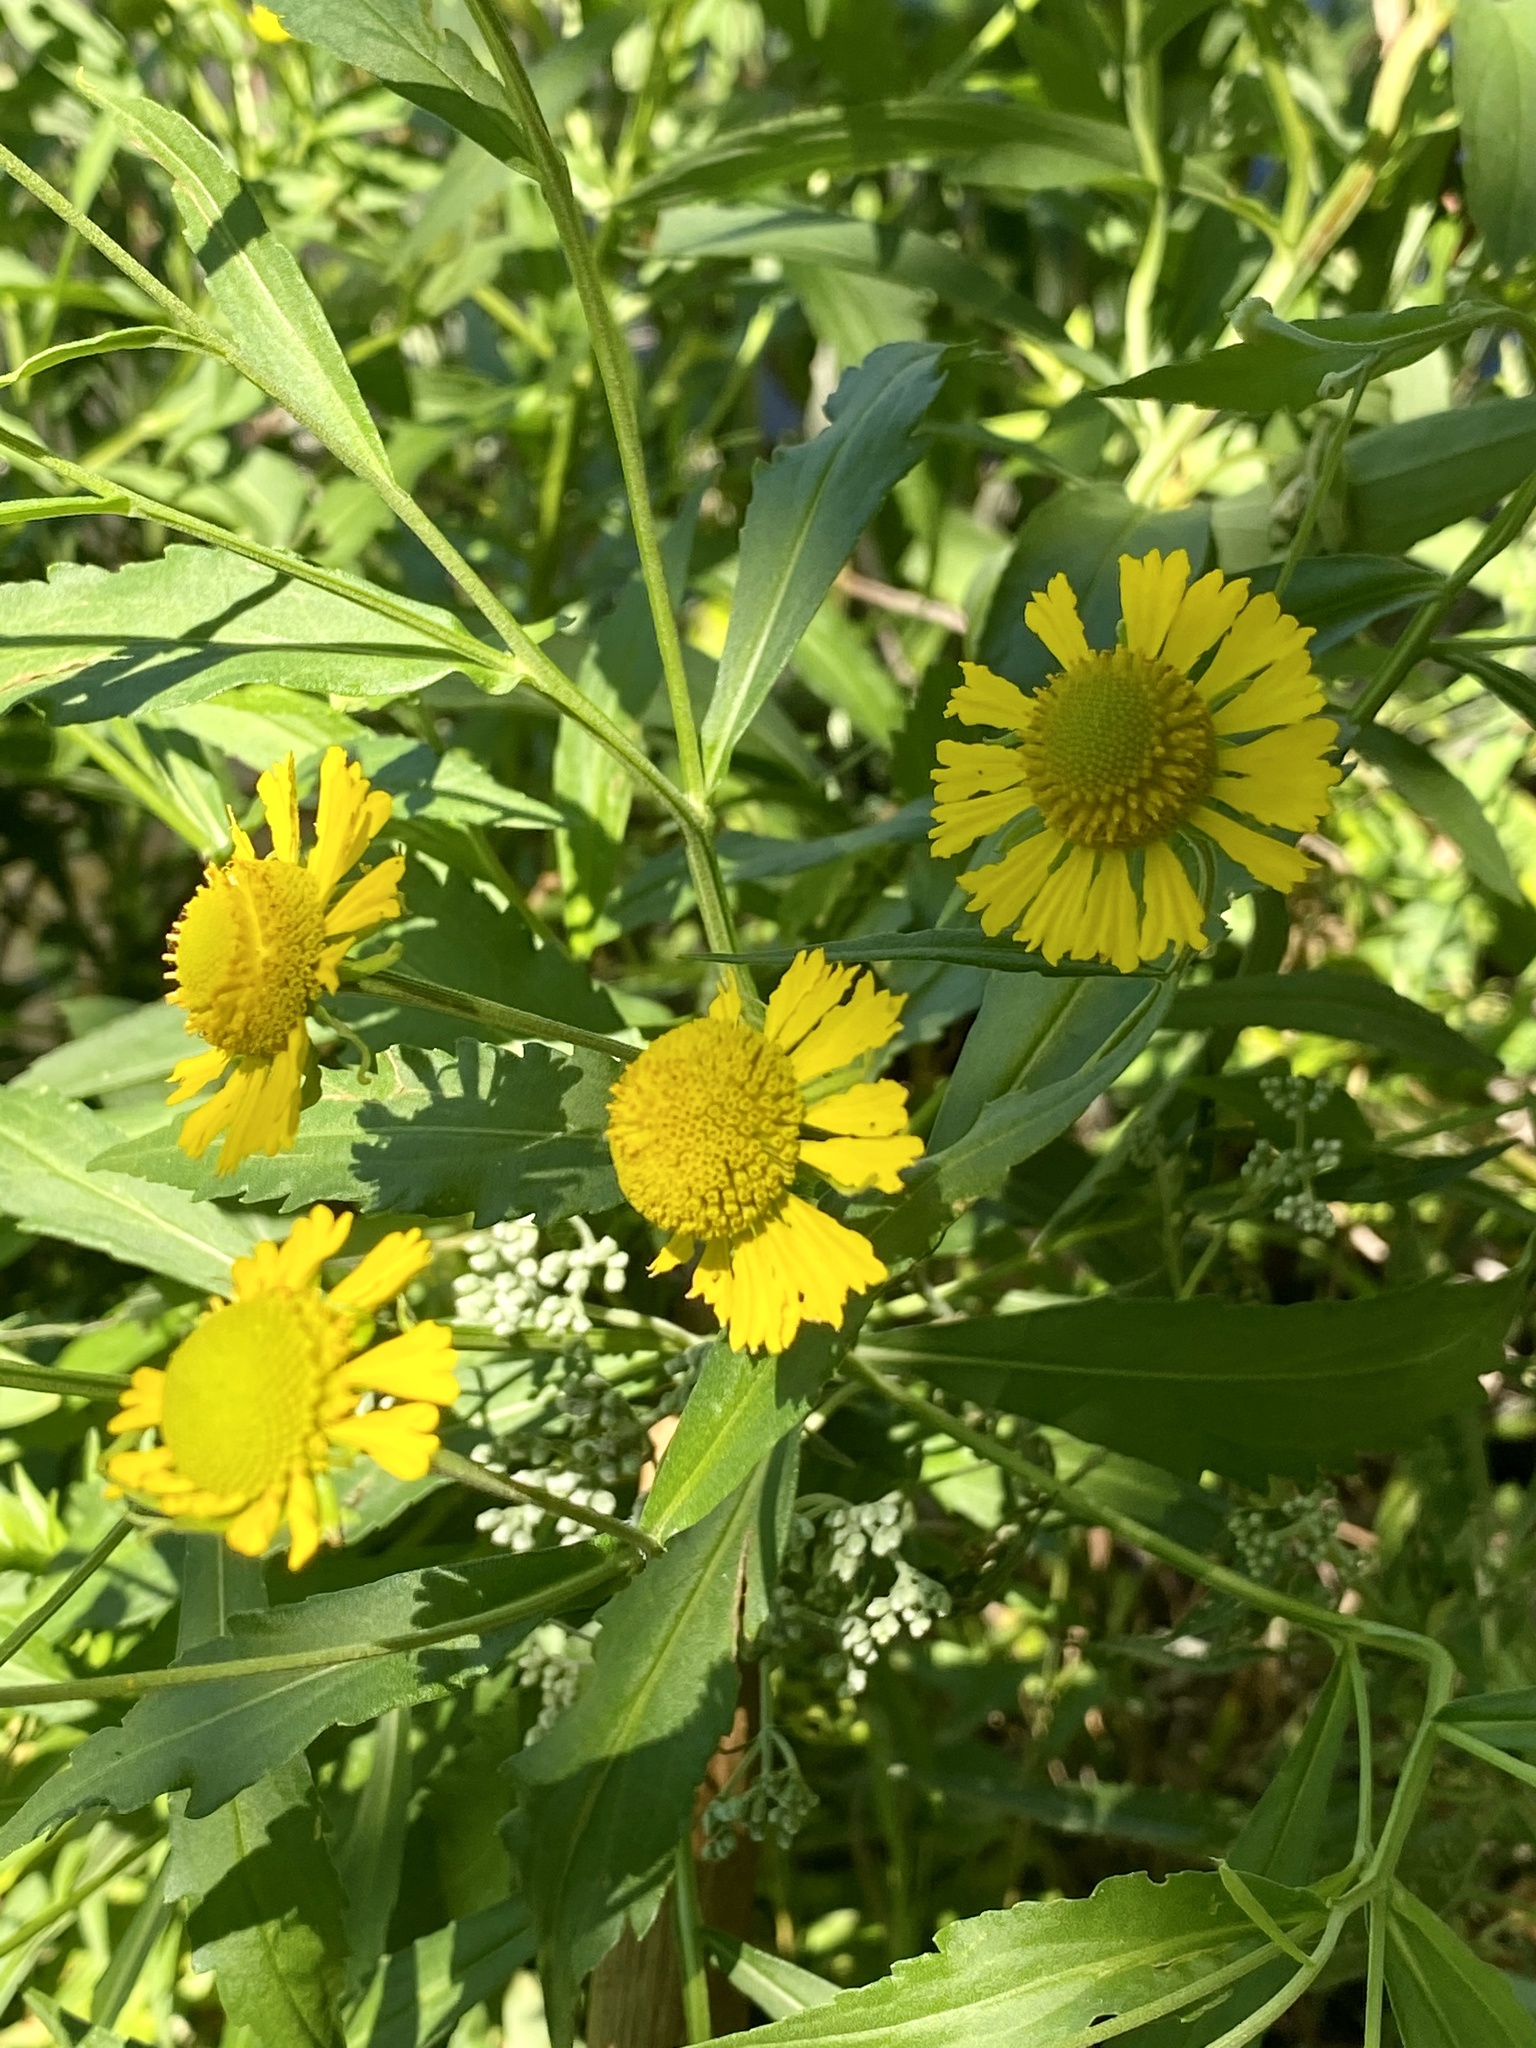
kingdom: Plantae
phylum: Tracheophyta
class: Magnoliopsida
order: Asterales
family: Asteraceae
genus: Helenium
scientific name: Helenium autumnale
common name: Sneezeweed
